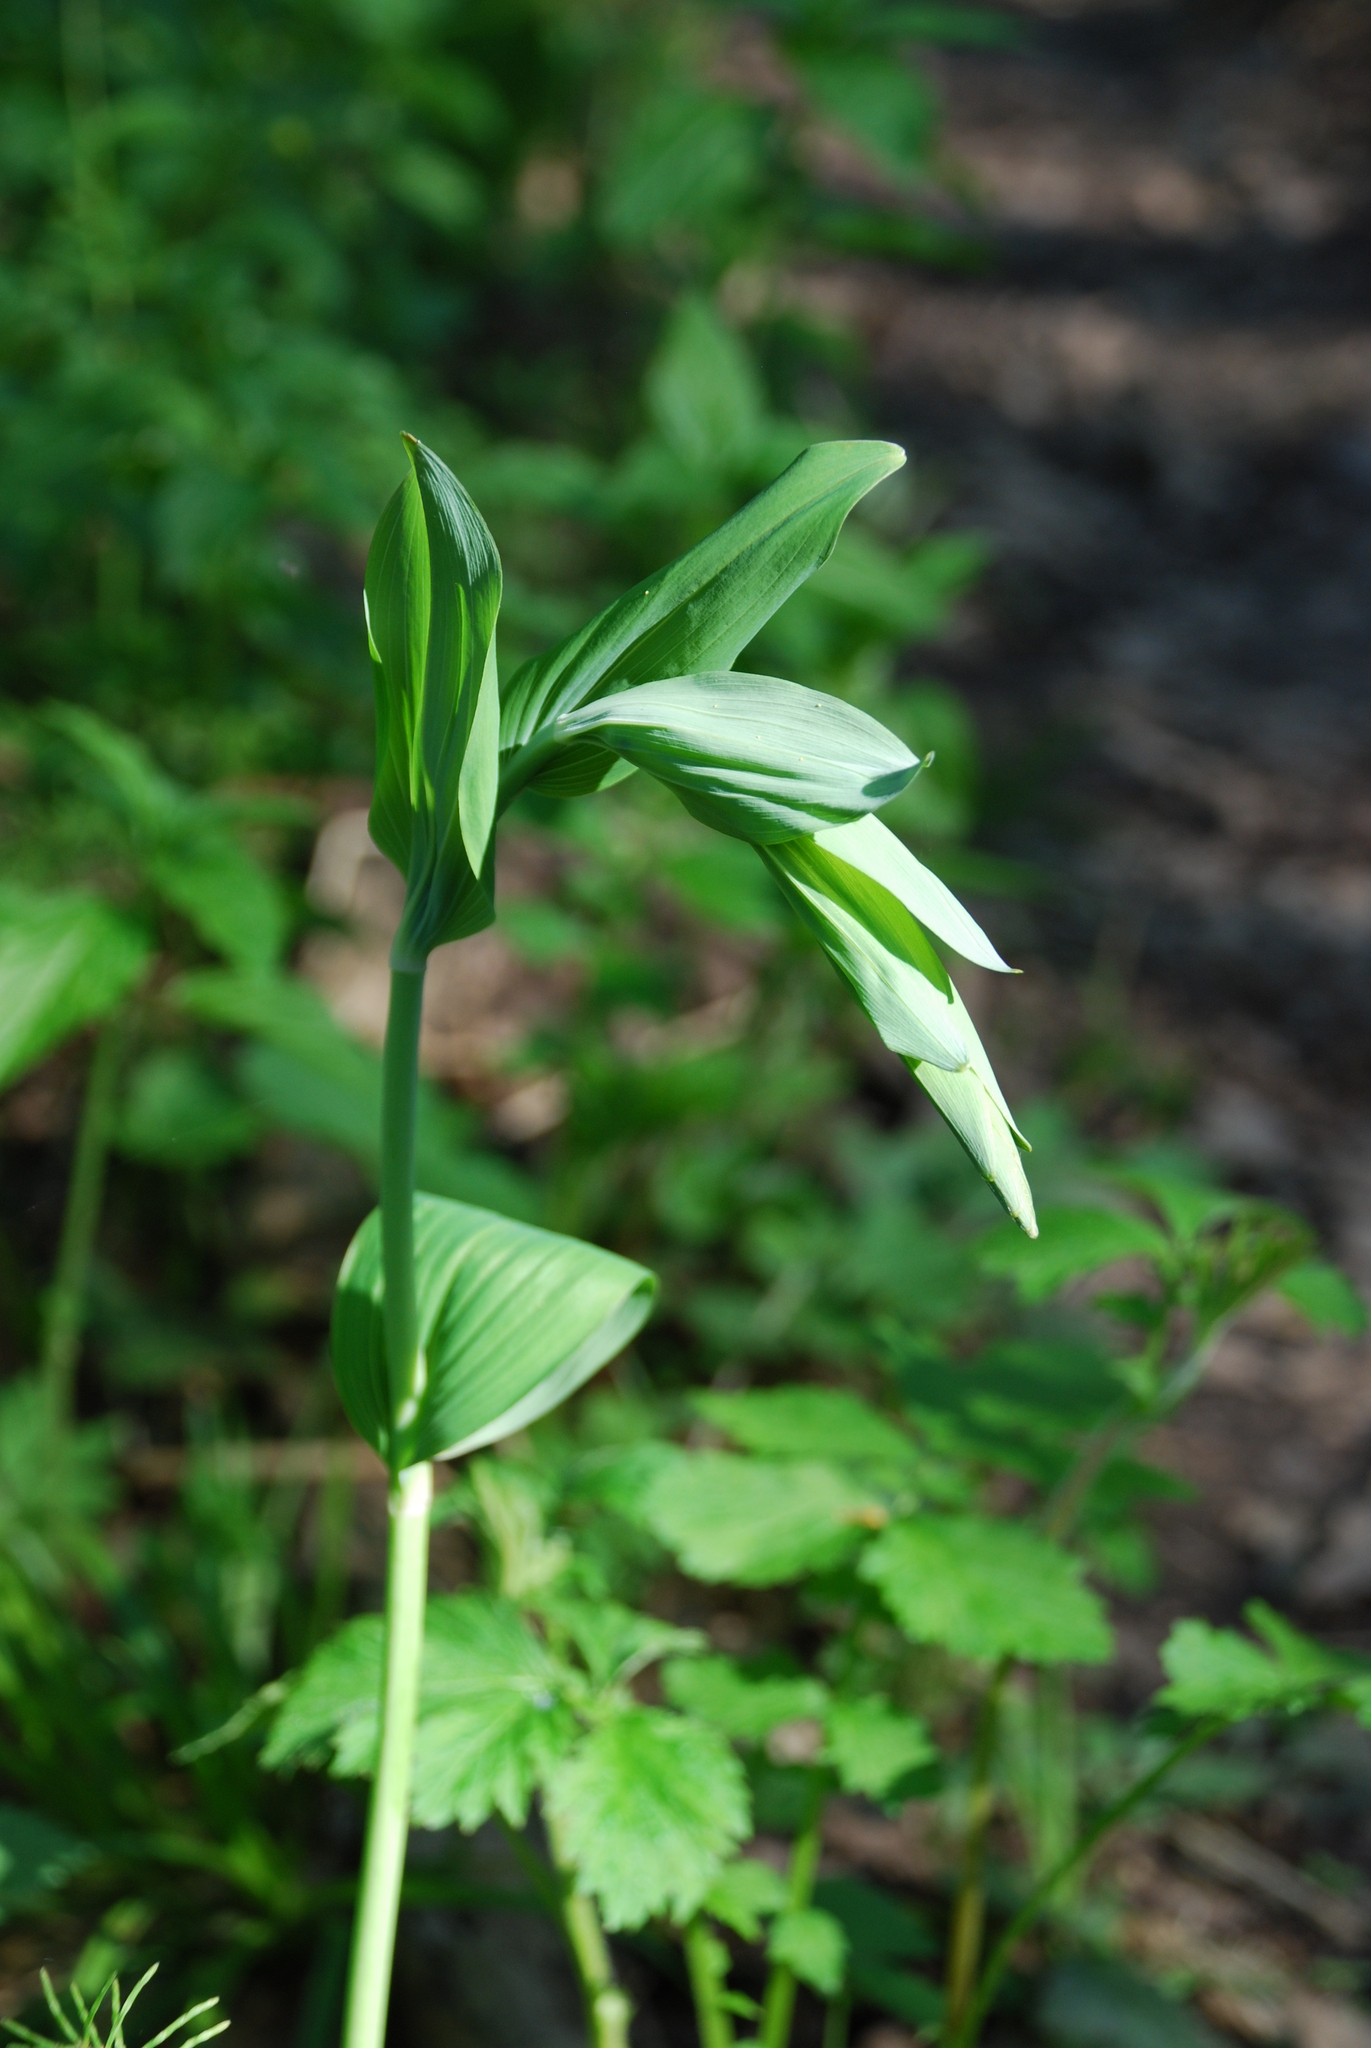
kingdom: Plantae
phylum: Tracheophyta
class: Liliopsida
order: Asparagales
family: Asparagaceae
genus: Polygonatum
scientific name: Polygonatum multiflorum
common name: Solomon's-seal
